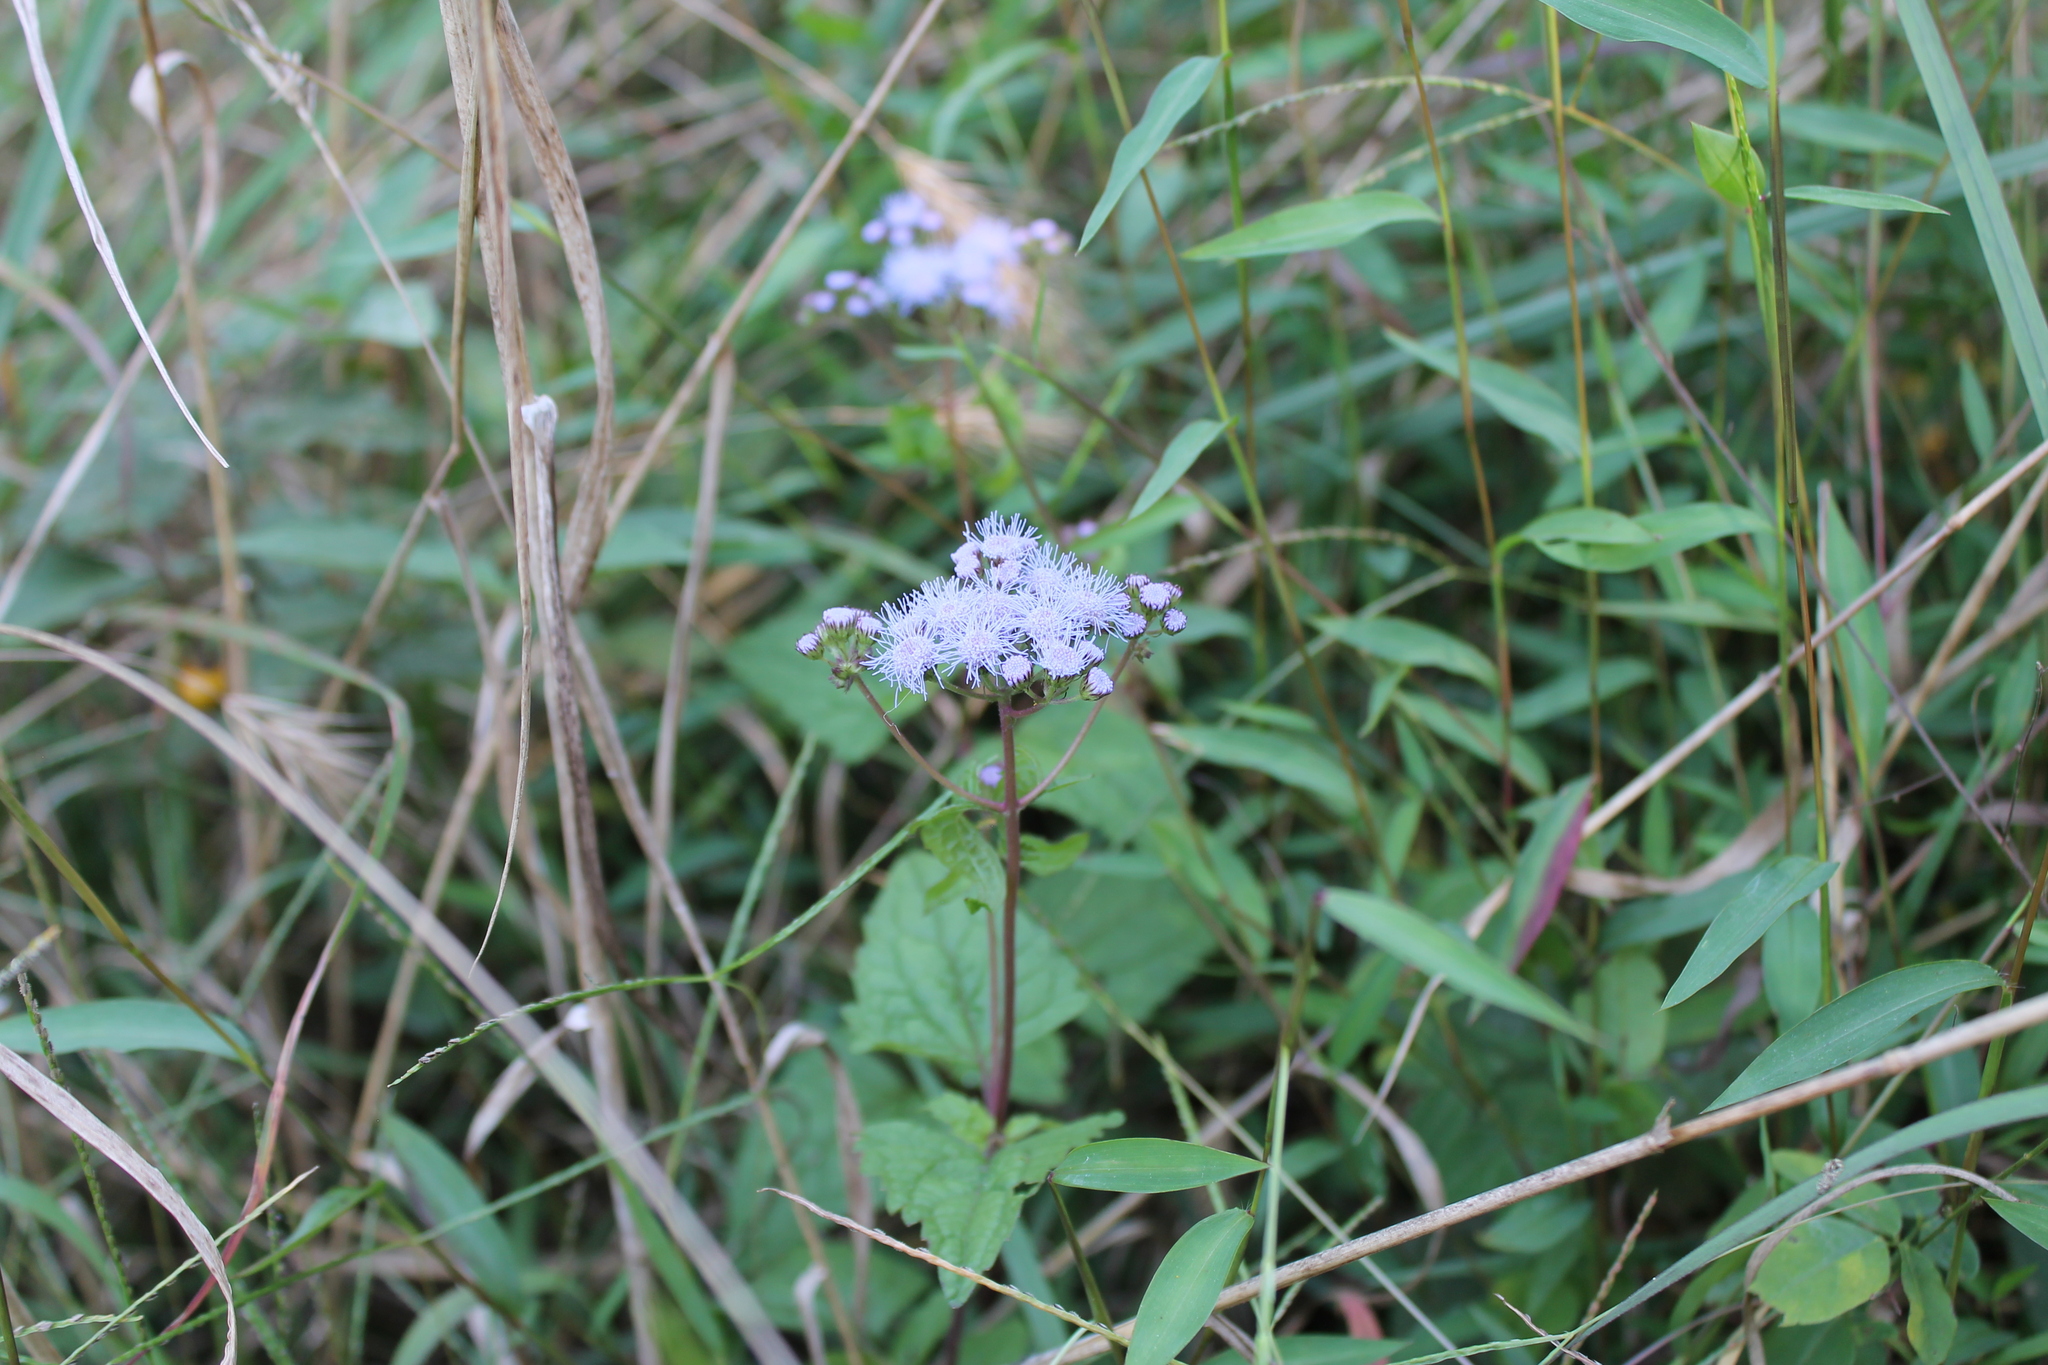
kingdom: Plantae
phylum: Tracheophyta
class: Magnoliopsida
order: Asterales
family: Asteraceae
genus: Conoclinium
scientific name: Conoclinium coelestinum
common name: Blue mistflower
